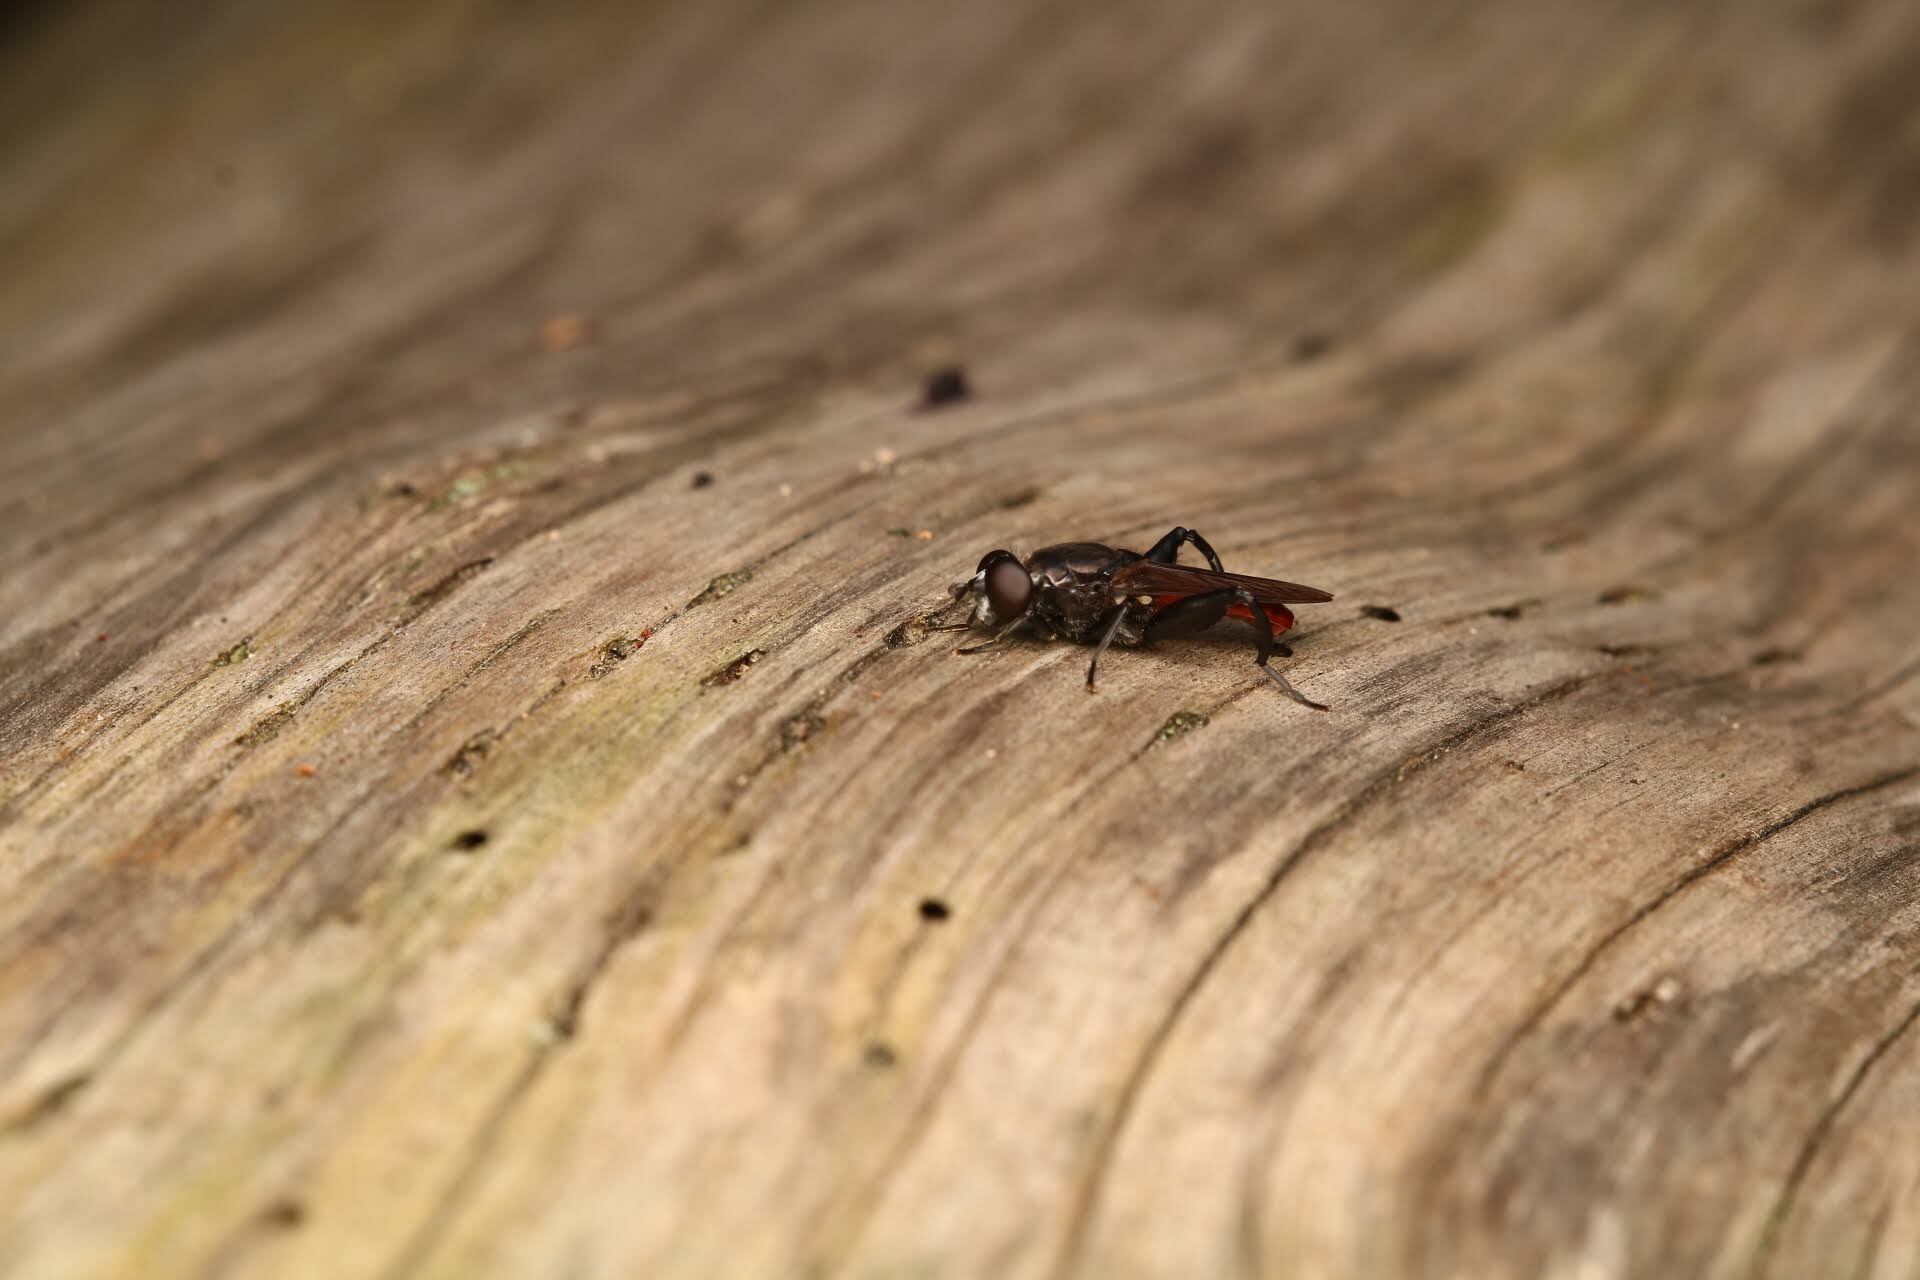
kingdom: Animalia
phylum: Arthropoda
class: Insecta
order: Diptera
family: Syrphidae
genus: Chalcosyrphus
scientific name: Chalcosyrphus piger
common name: Short-haired leafwalker
